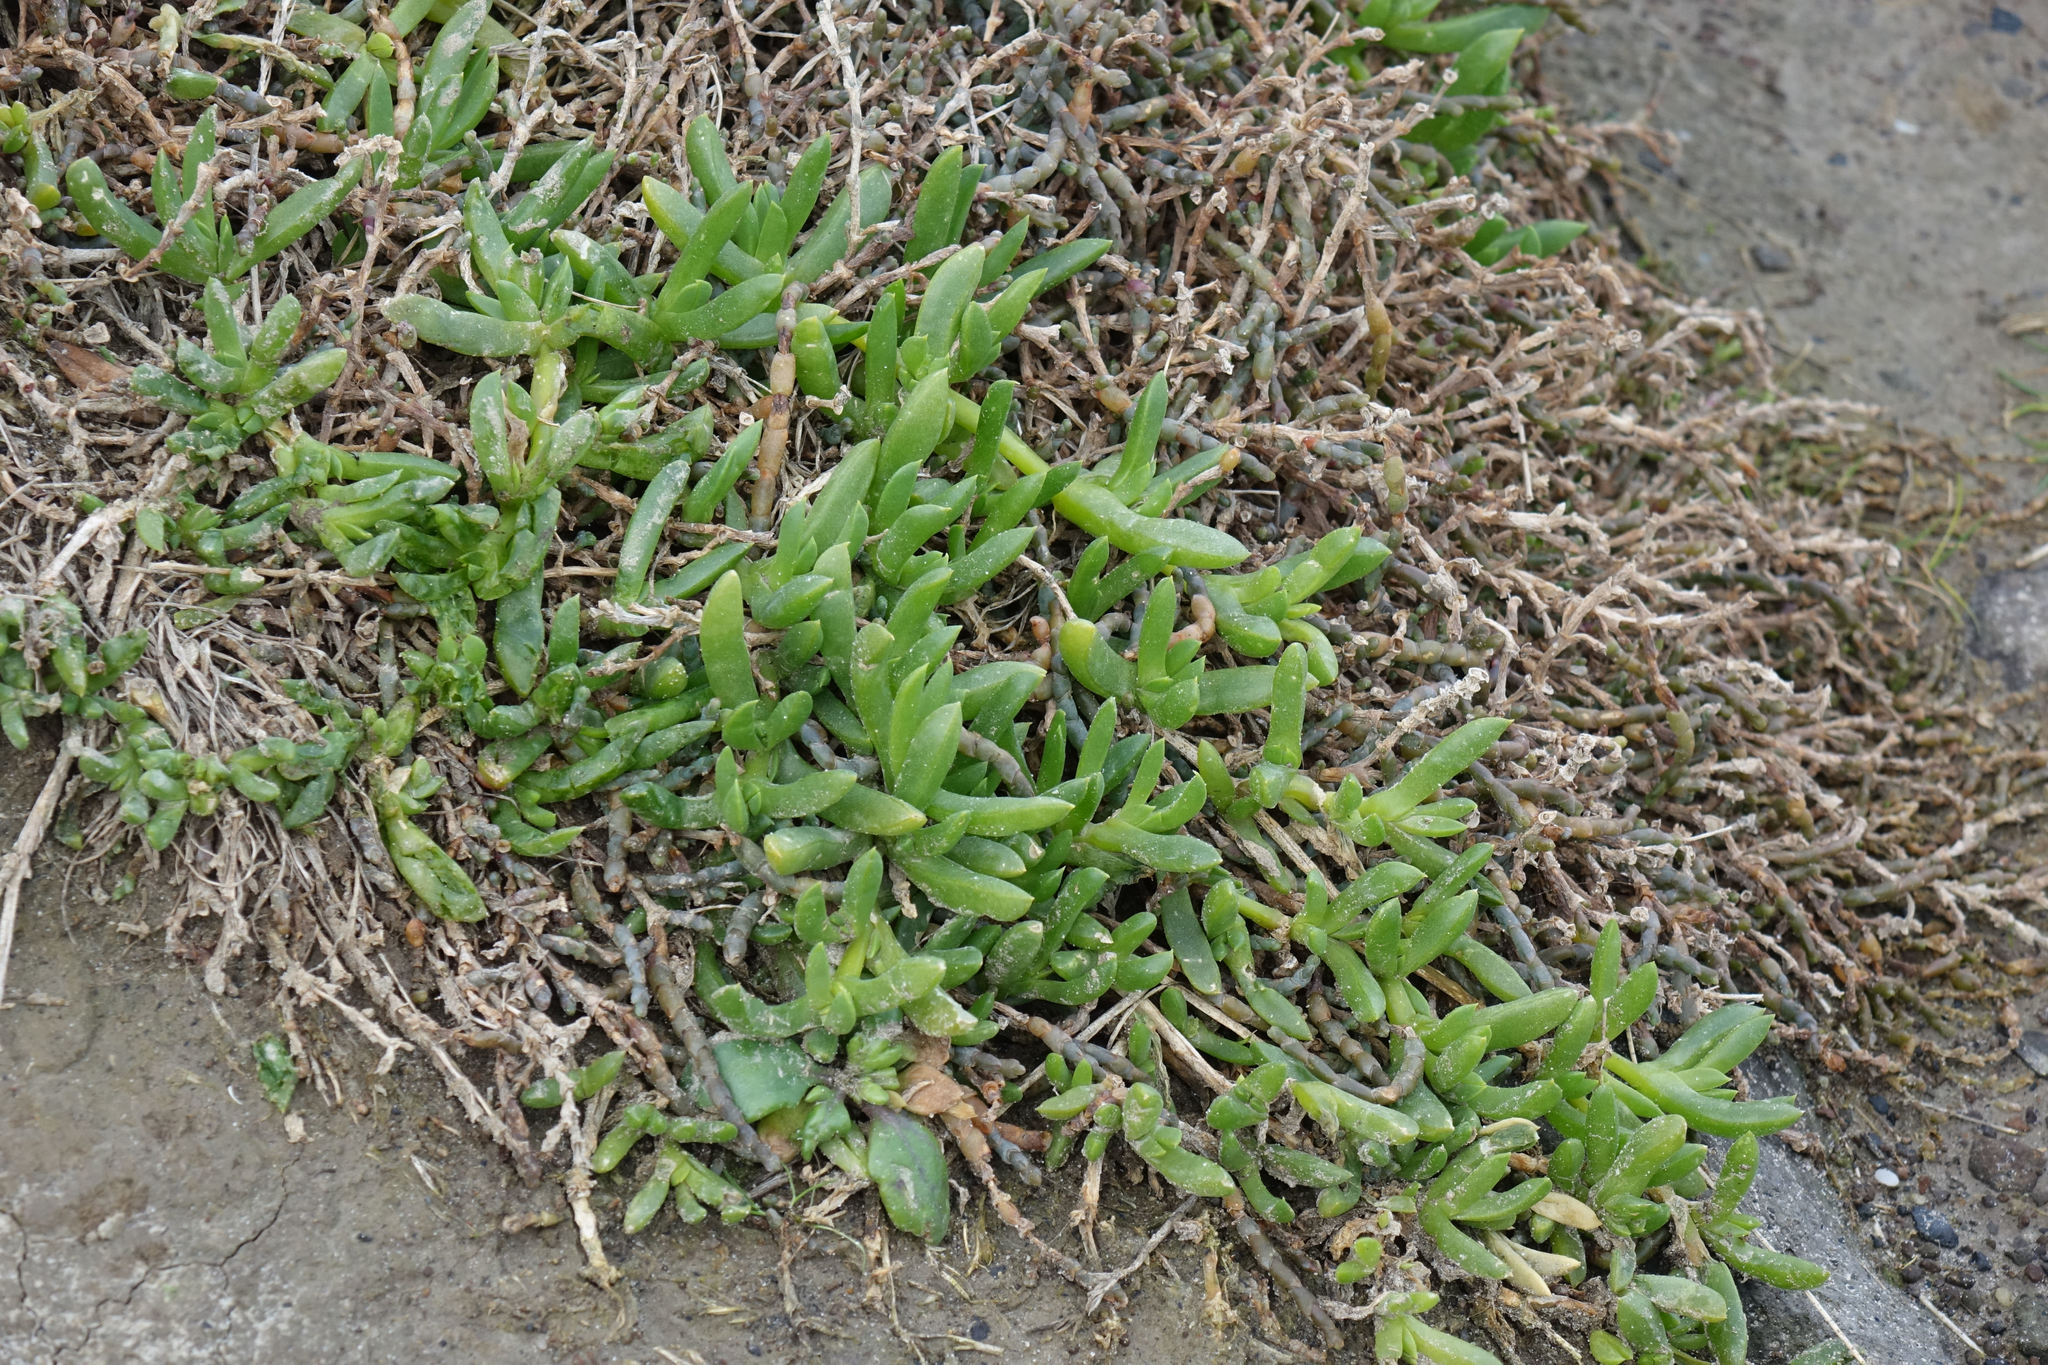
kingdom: Plantae
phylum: Tracheophyta
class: Magnoliopsida
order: Caryophyllales
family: Aizoaceae
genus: Disphyma
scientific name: Disphyma australe
